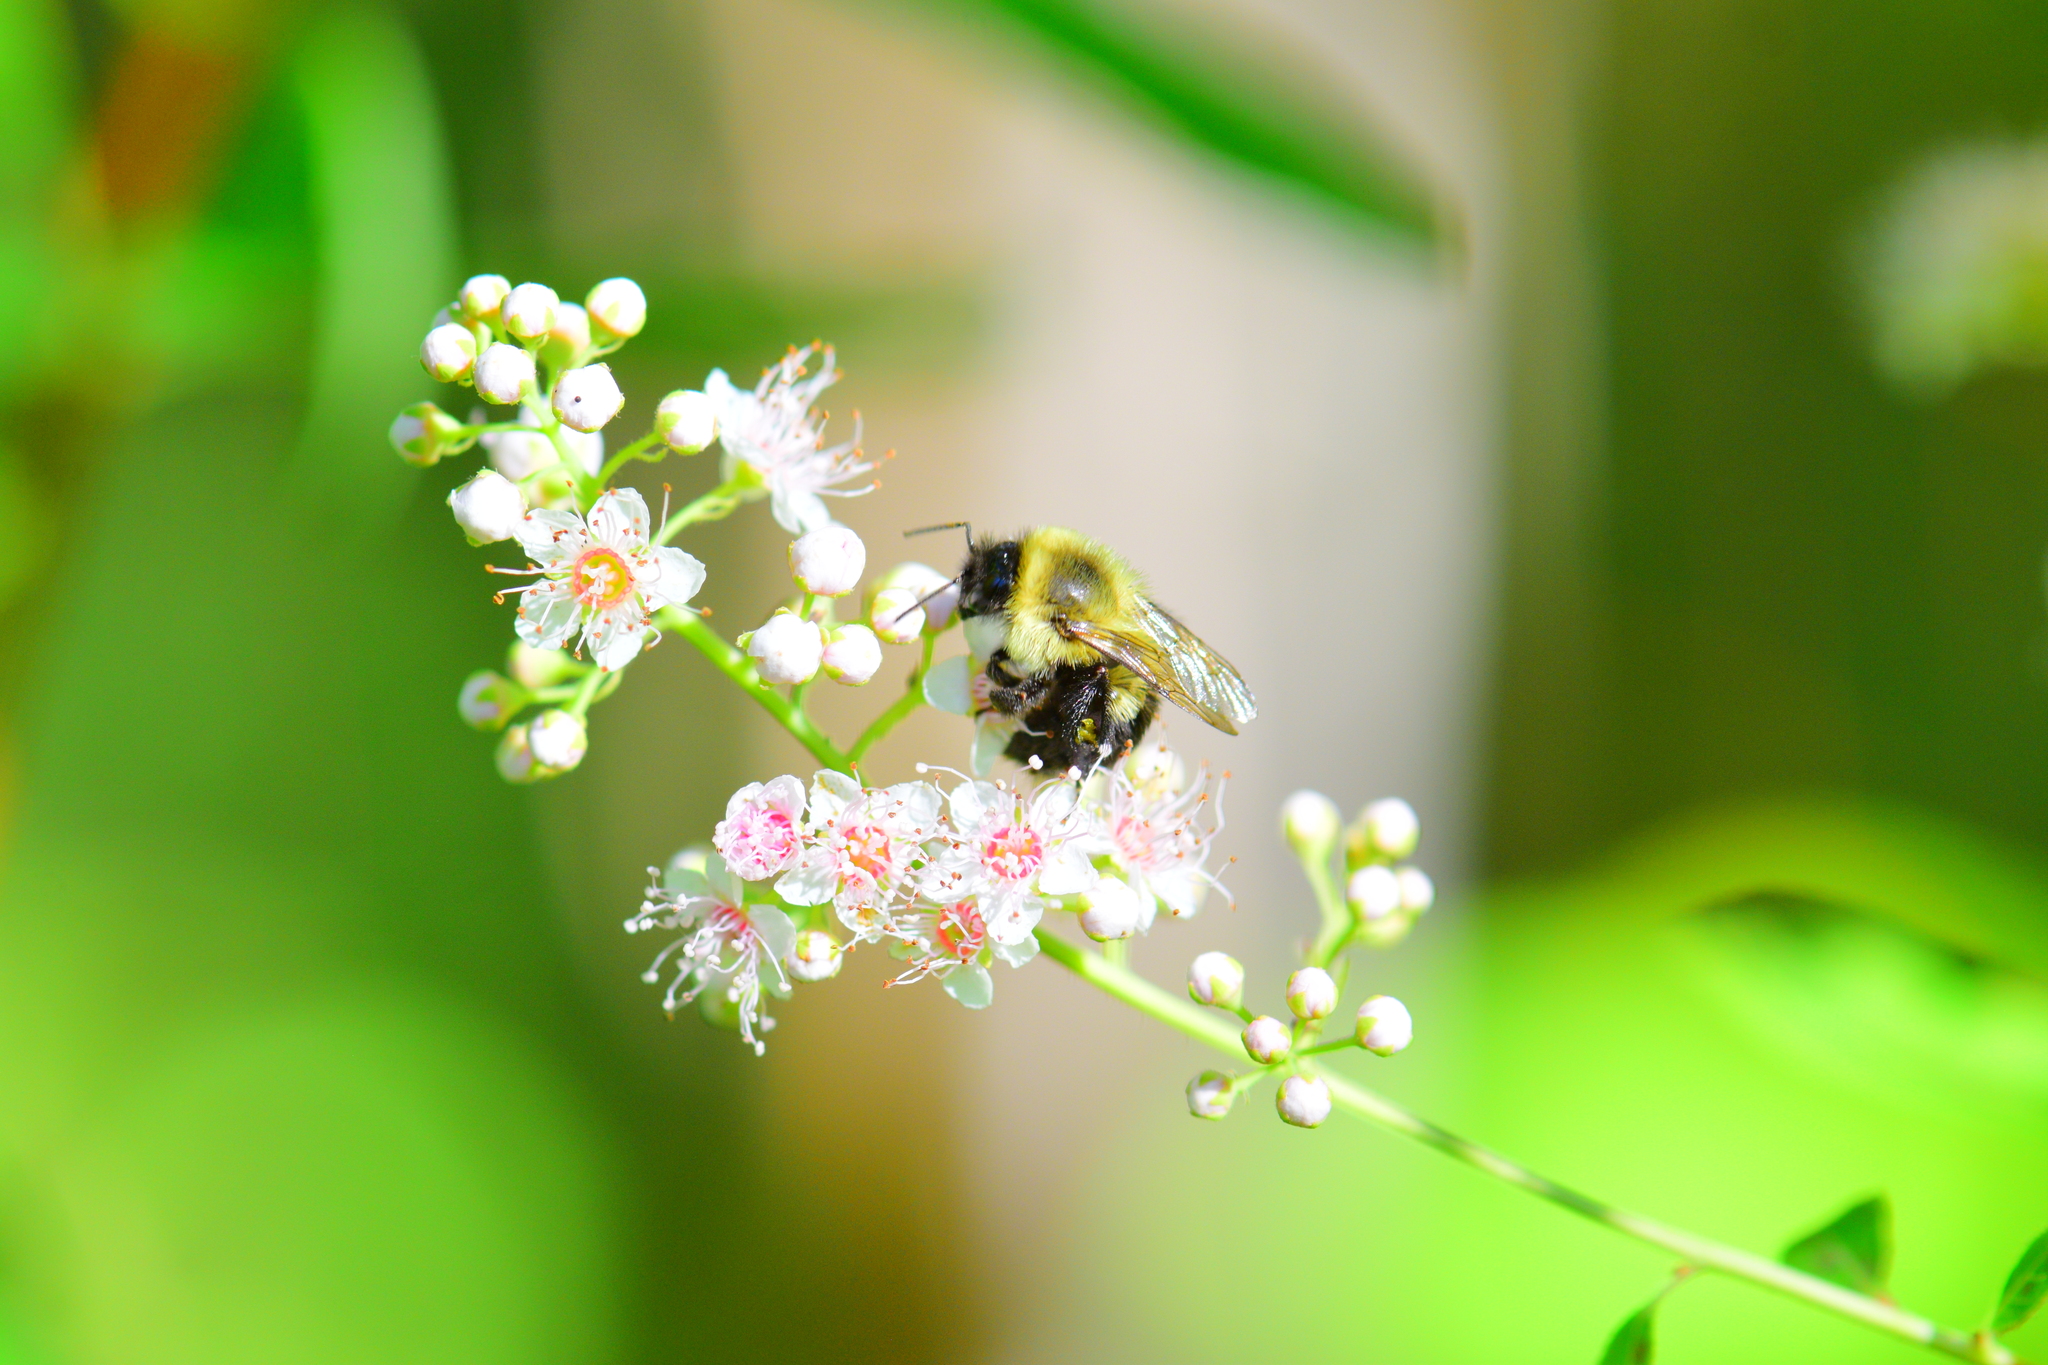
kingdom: Animalia
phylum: Arthropoda
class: Insecta
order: Hymenoptera
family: Apidae
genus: Bombus
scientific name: Bombus impatiens
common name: Common eastern bumble bee
